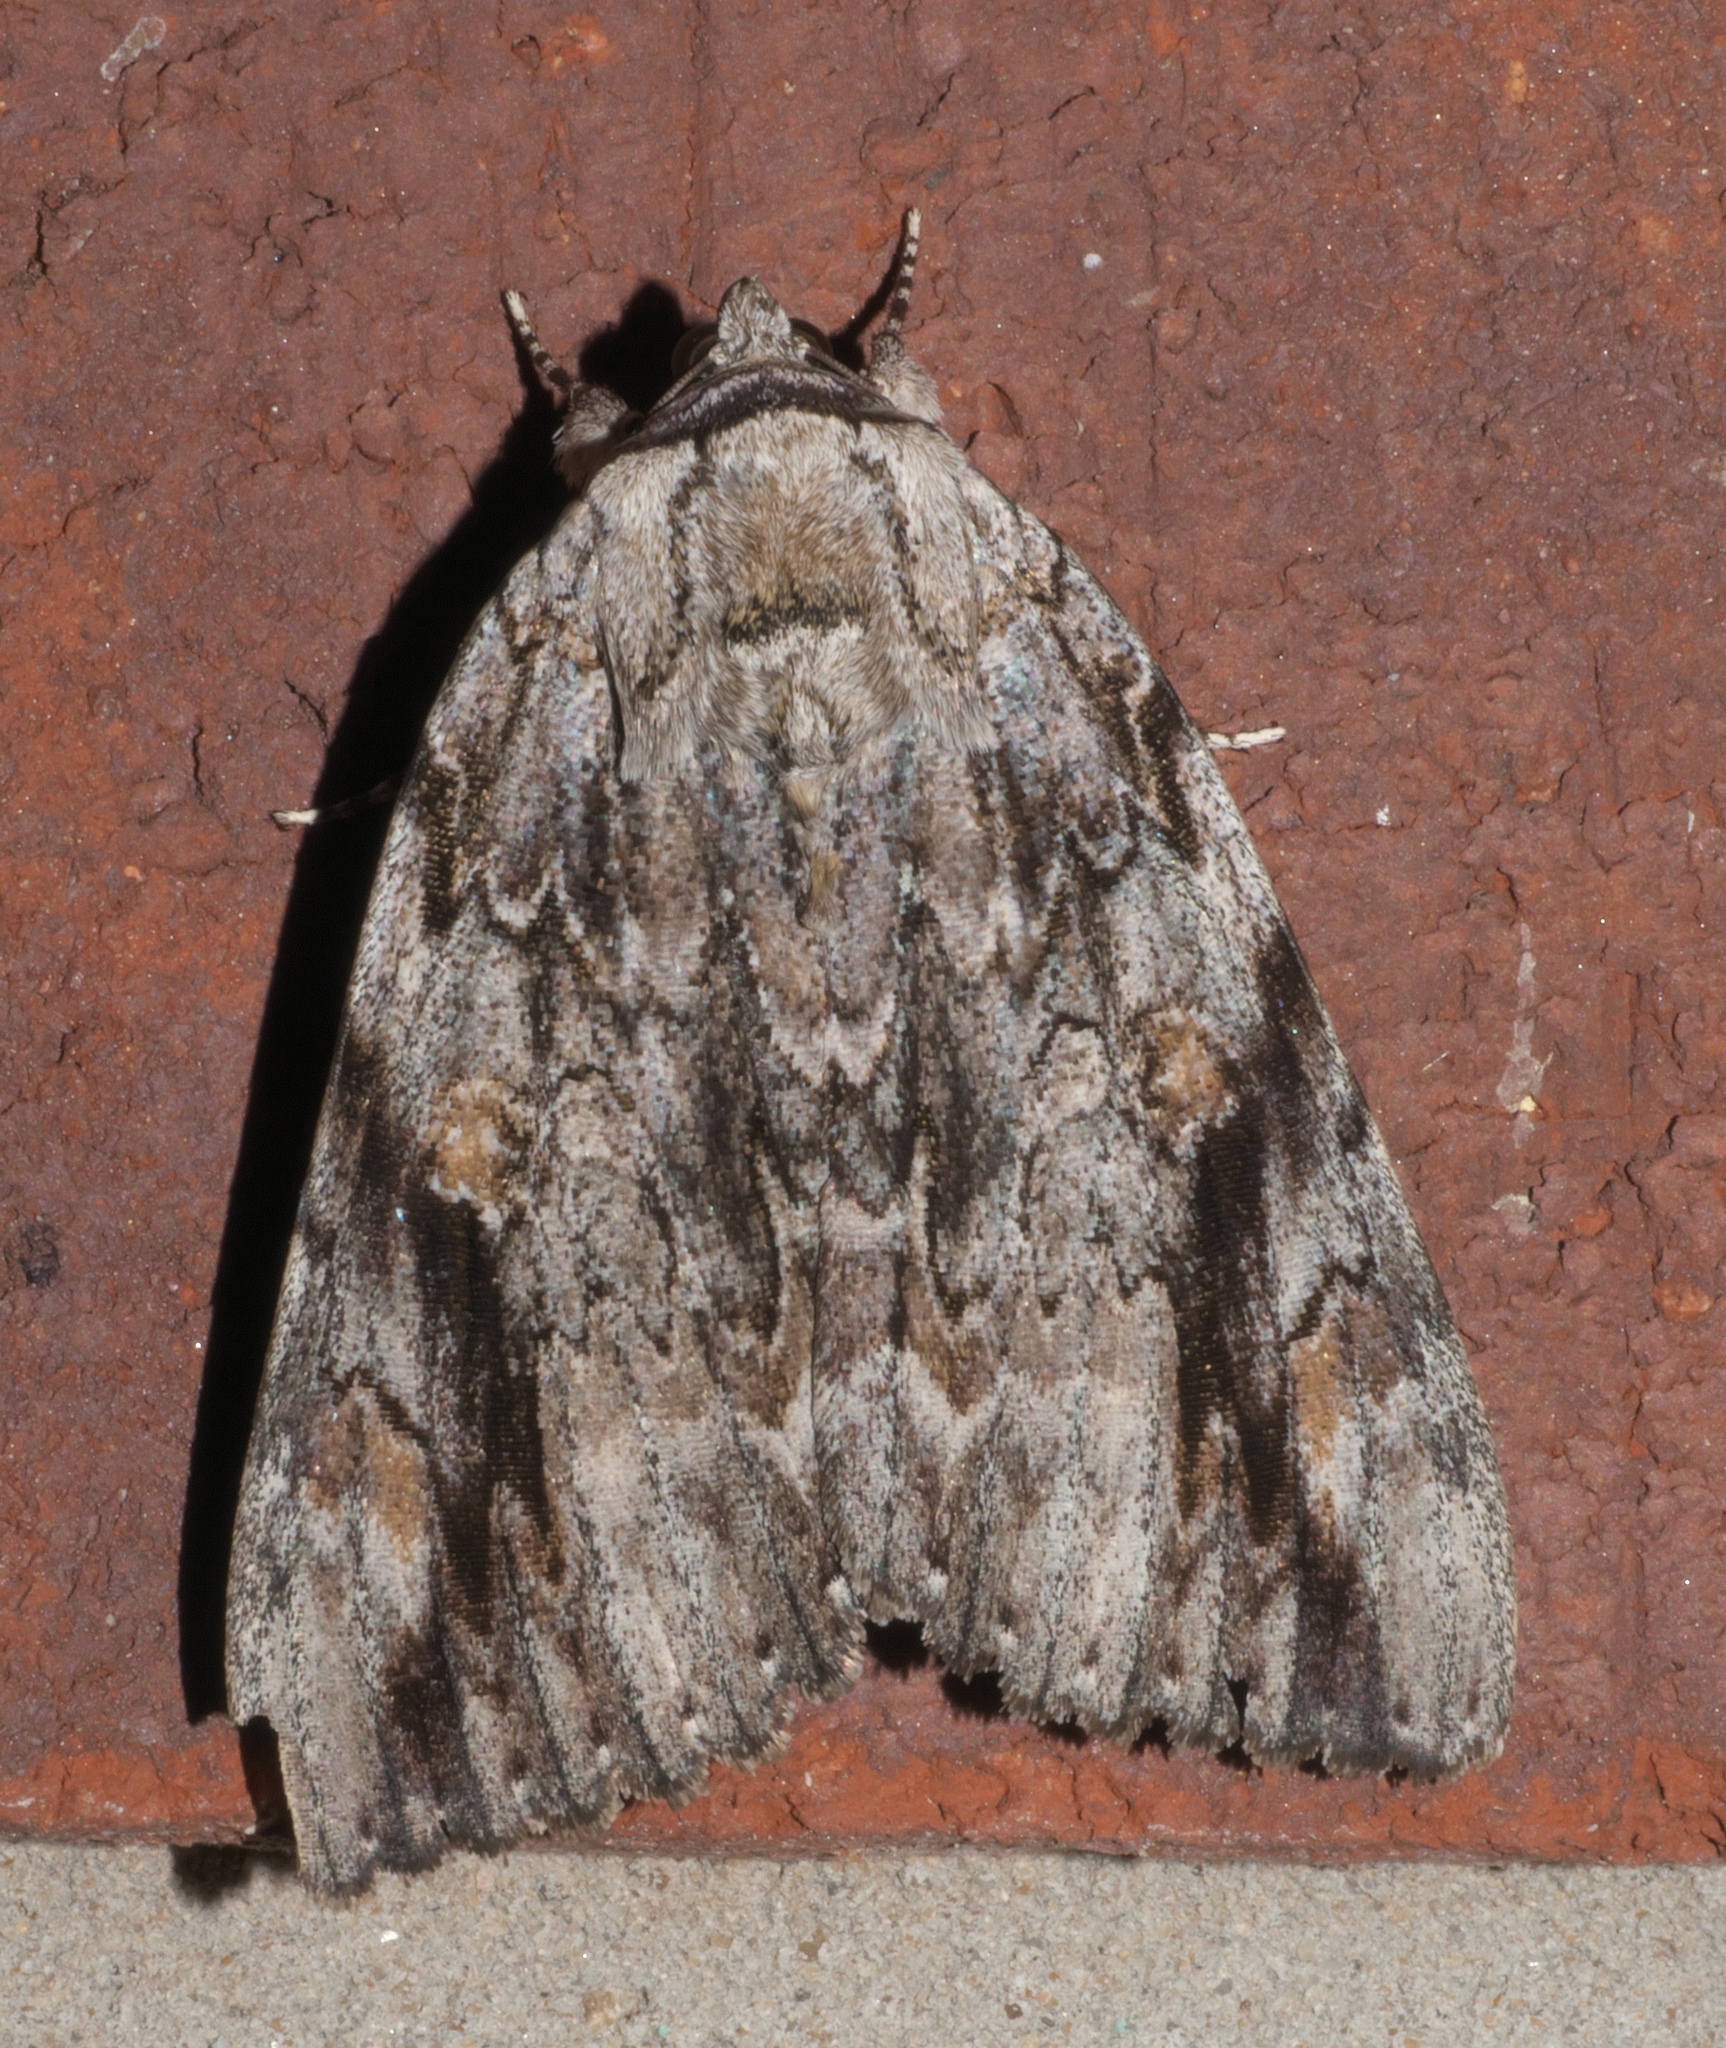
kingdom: Animalia
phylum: Arthropoda
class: Insecta
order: Lepidoptera
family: Erebidae
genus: Catocala
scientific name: Catocala maestosa
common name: Sad underwing
